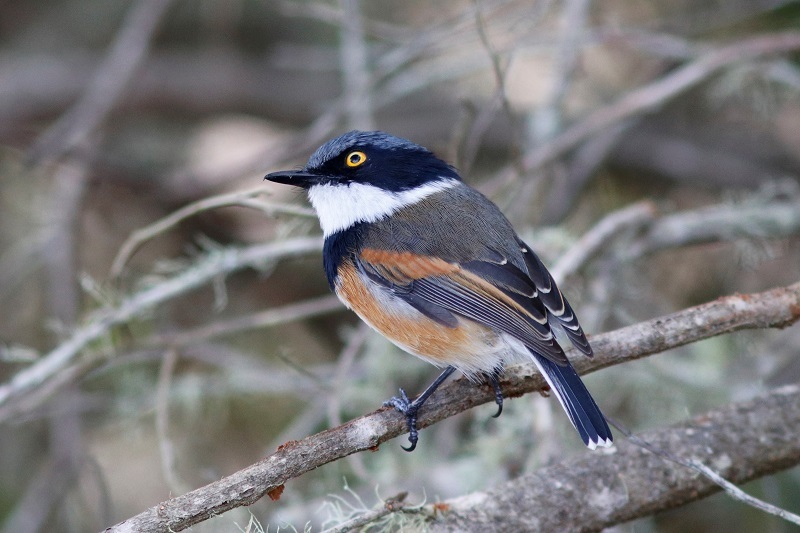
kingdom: Animalia
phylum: Chordata
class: Aves
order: Passeriformes
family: Platysteiridae
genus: Batis
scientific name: Batis capensis
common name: Cape batis
